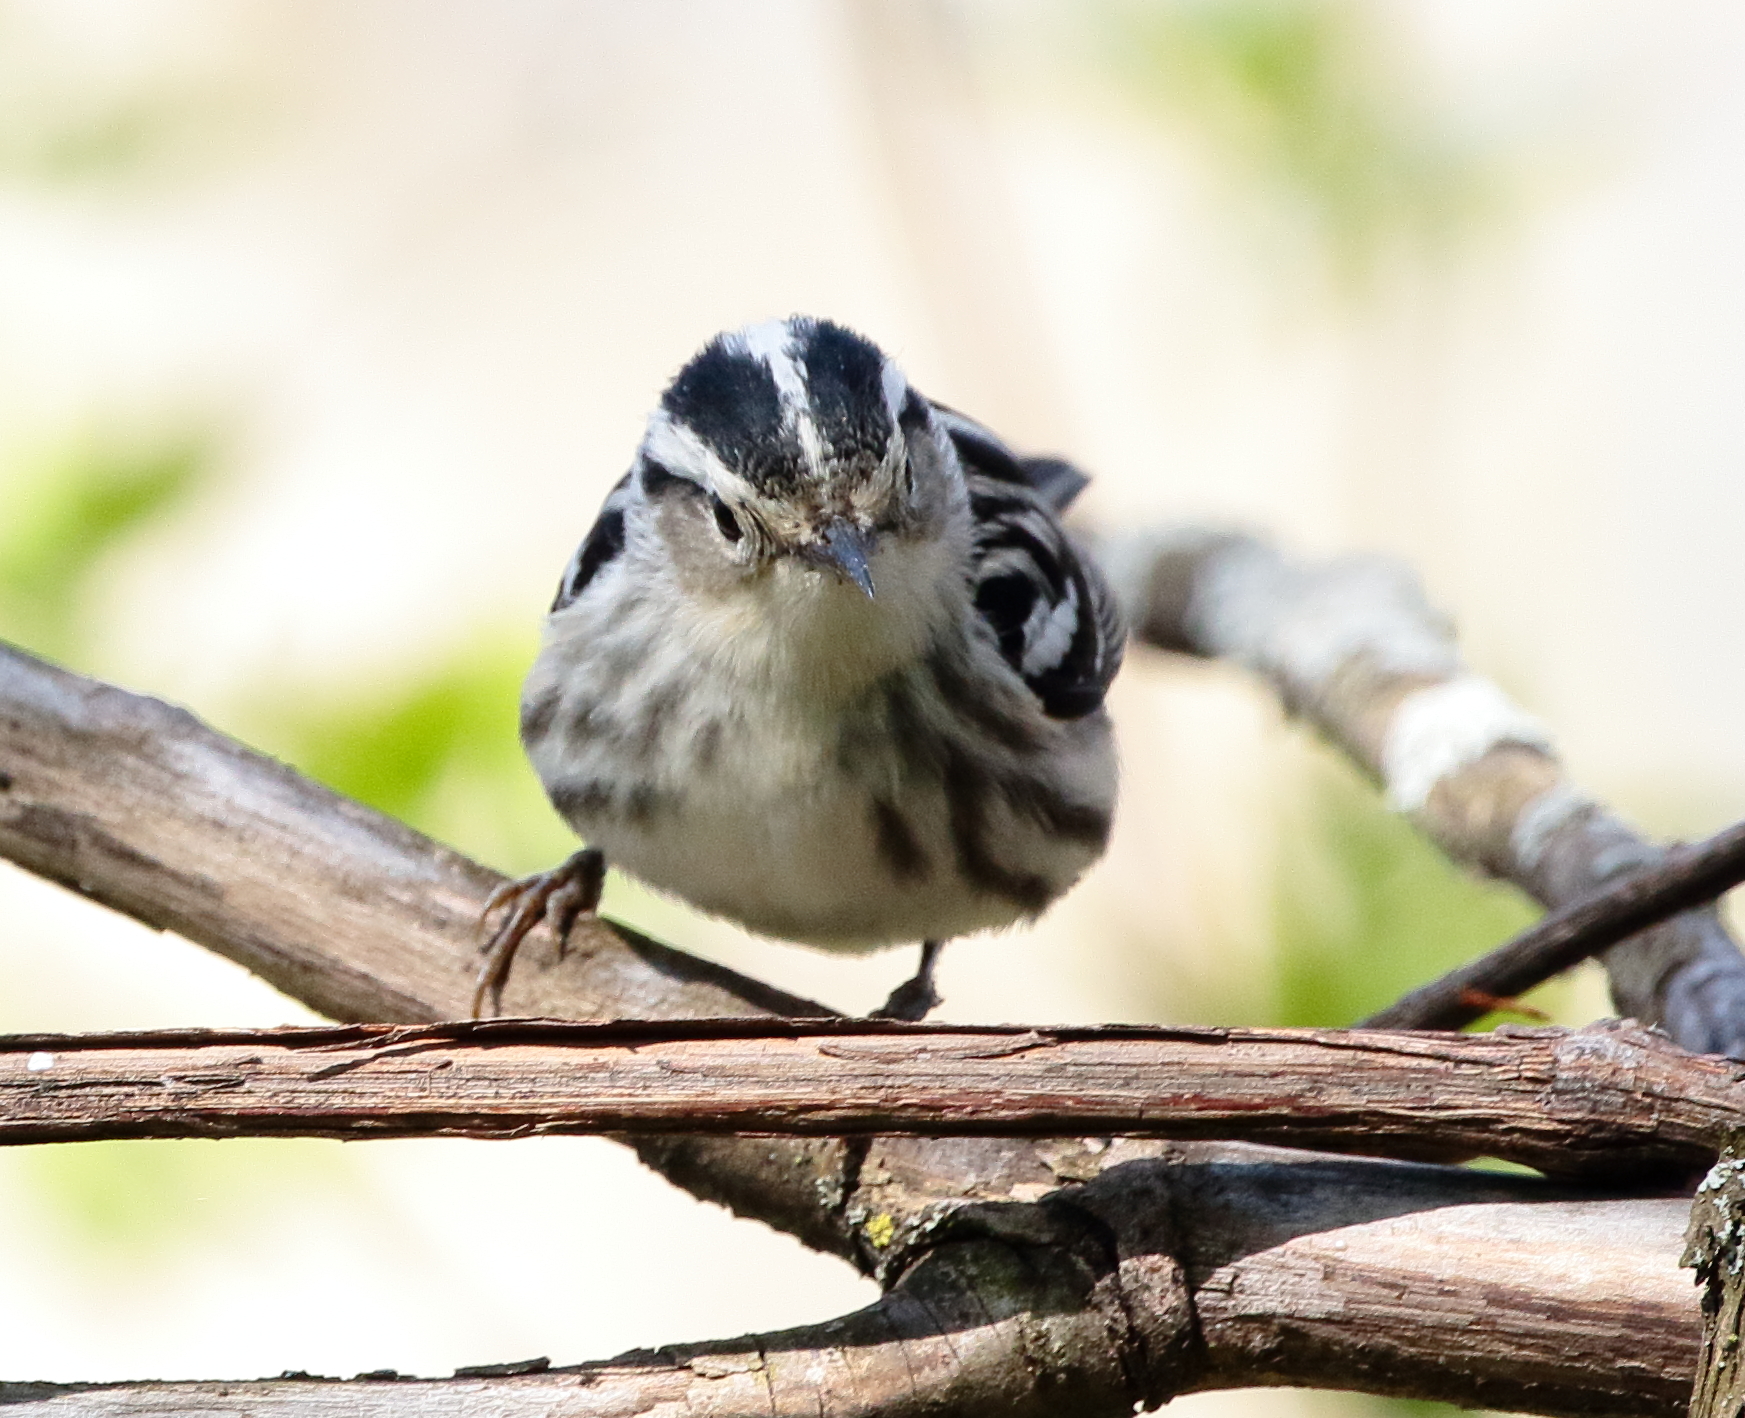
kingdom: Animalia
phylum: Chordata
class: Aves
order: Passeriformes
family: Parulidae
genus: Mniotilta
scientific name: Mniotilta varia
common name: Black-and-white warbler
